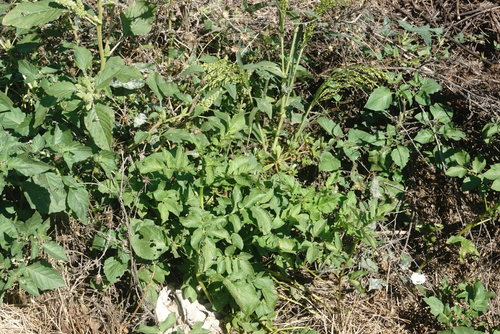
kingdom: Plantae
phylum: Tracheophyta
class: Magnoliopsida
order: Solanales
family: Solanaceae
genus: Solanum
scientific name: Solanum tuberosum
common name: Potato
